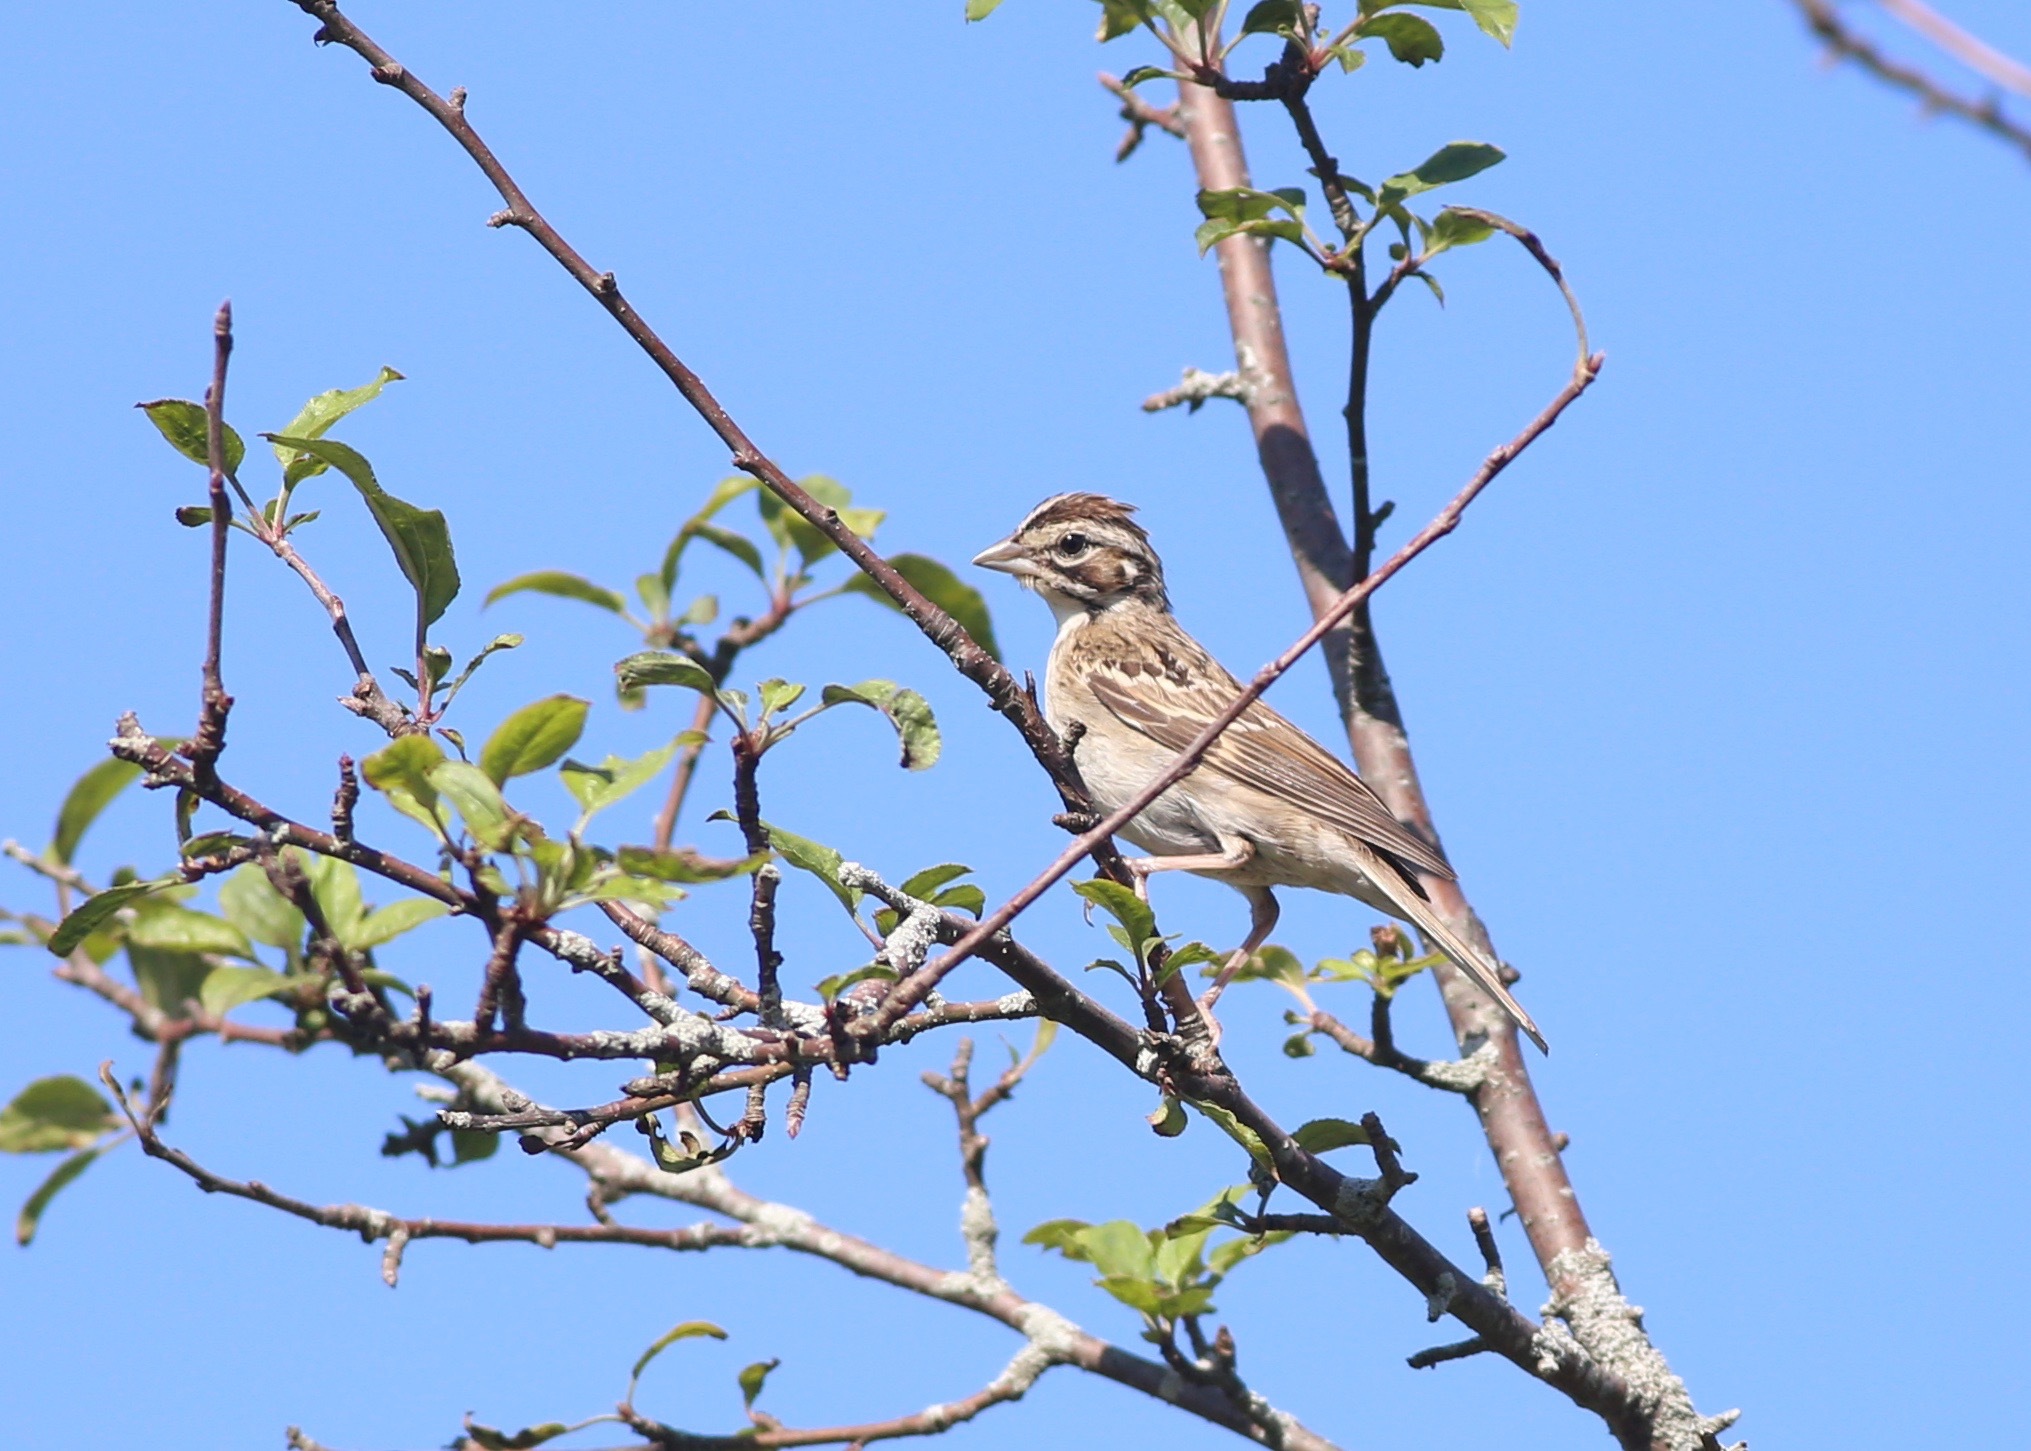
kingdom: Animalia
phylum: Chordata
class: Aves
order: Passeriformes
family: Passerellidae
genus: Chondestes
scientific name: Chondestes grammacus
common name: Lark sparrow
